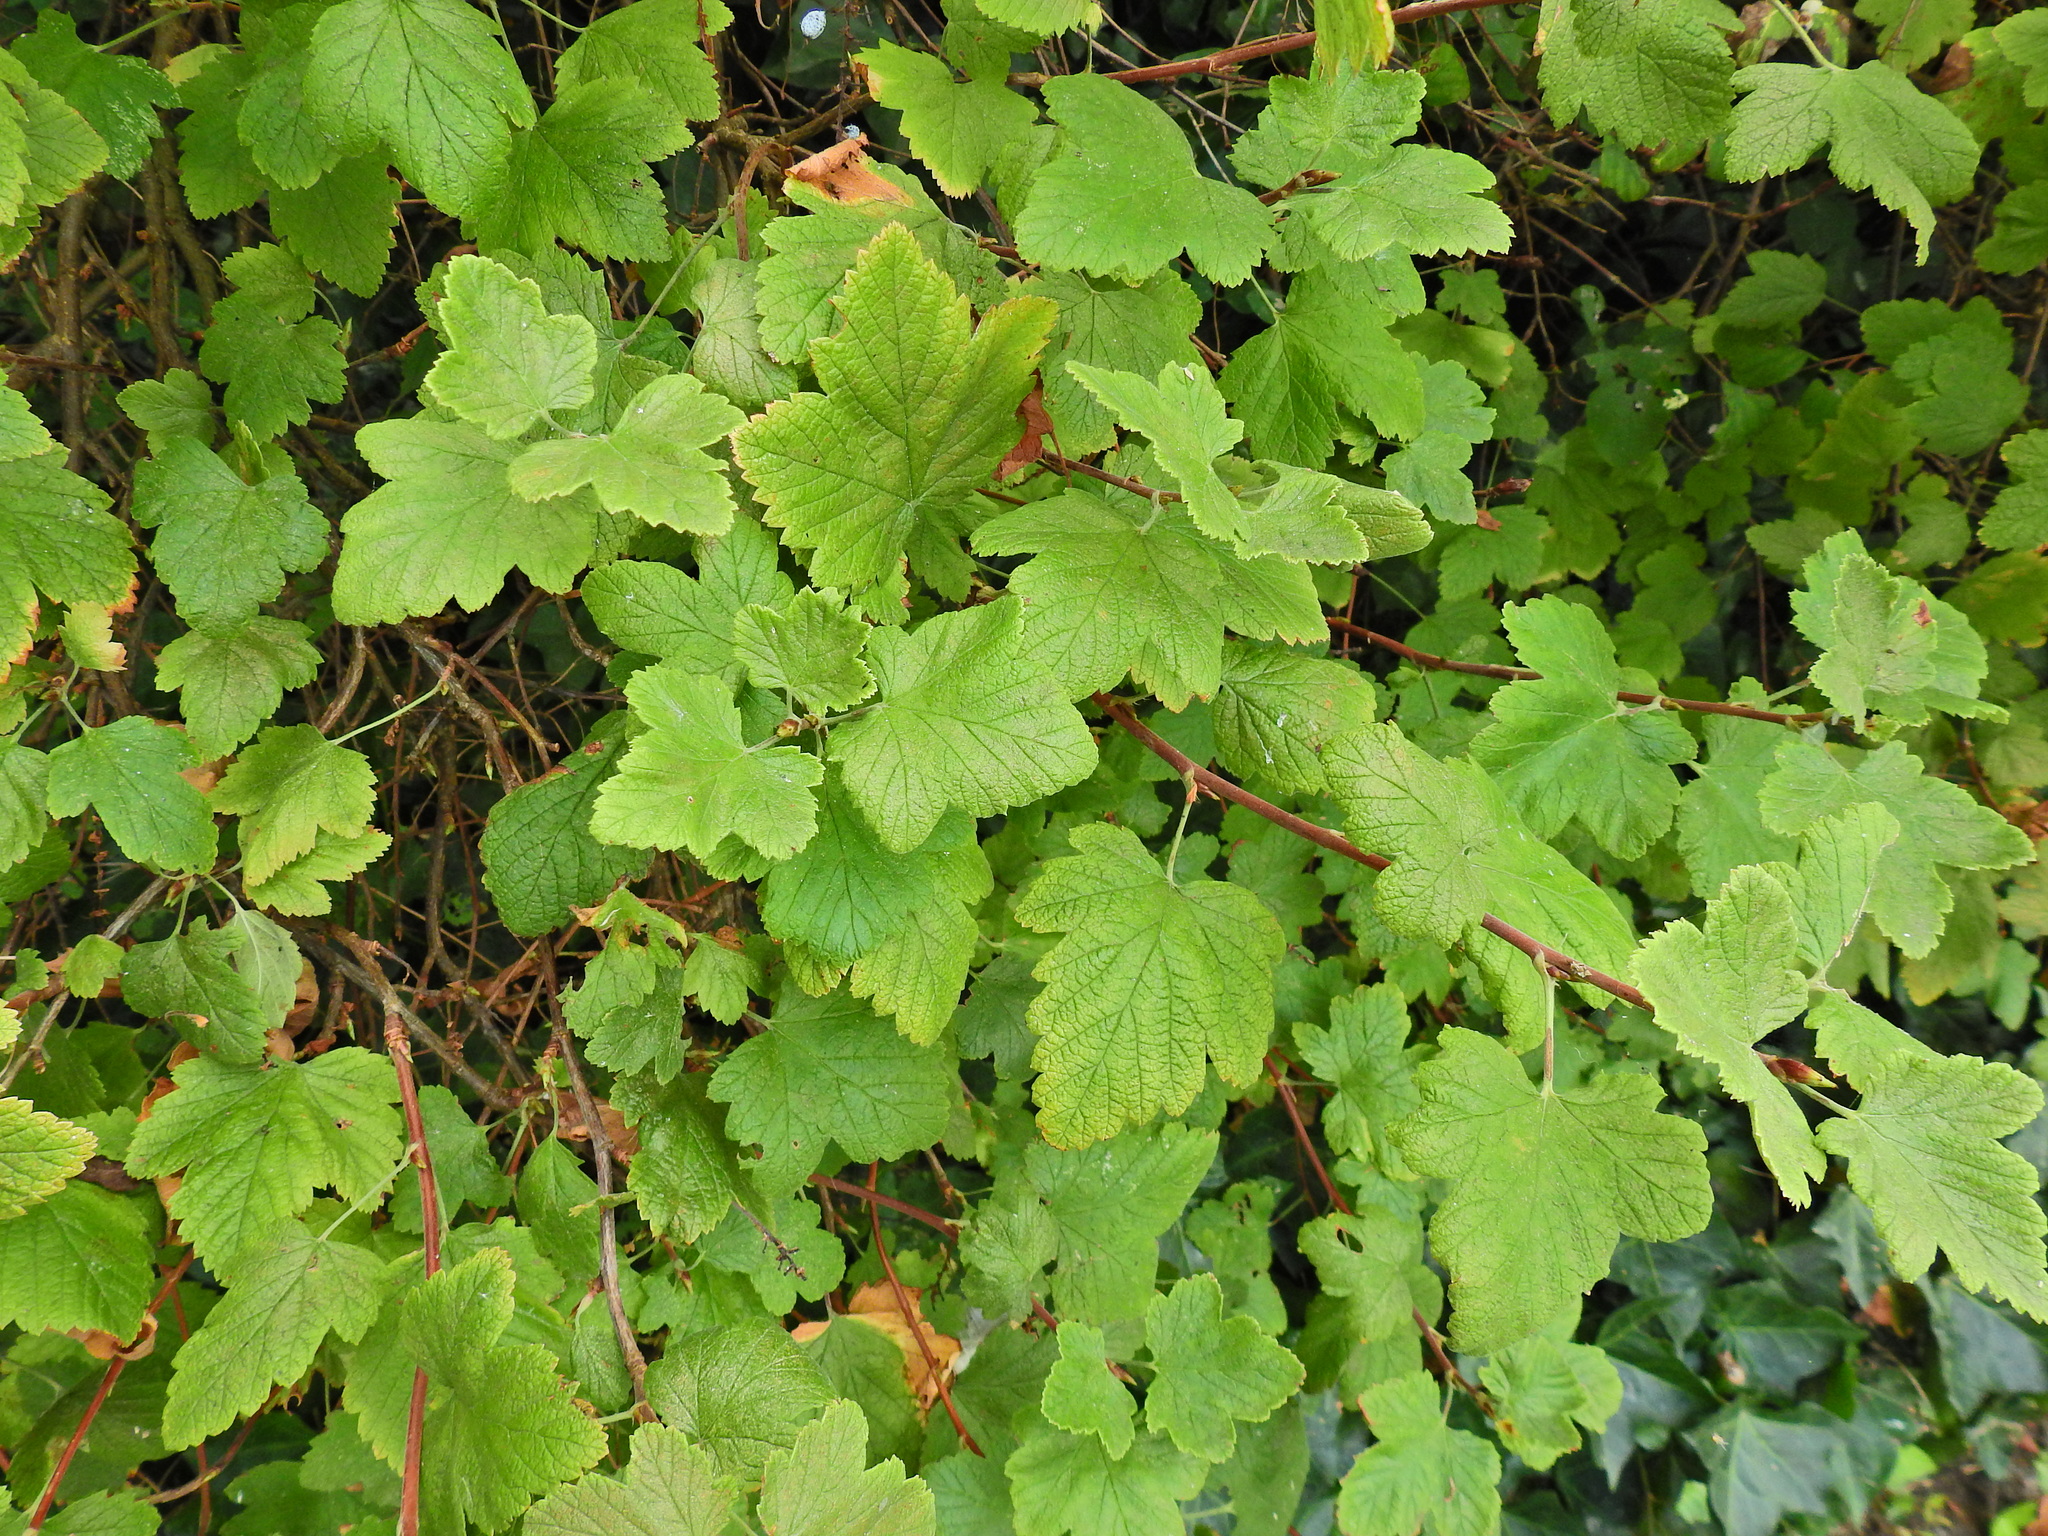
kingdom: Plantae
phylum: Tracheophyta
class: Magnoliopsida
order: Saxifragales
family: Grossulariaceae
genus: Ribes
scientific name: Ribes sanguineum
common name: Flowering currant
